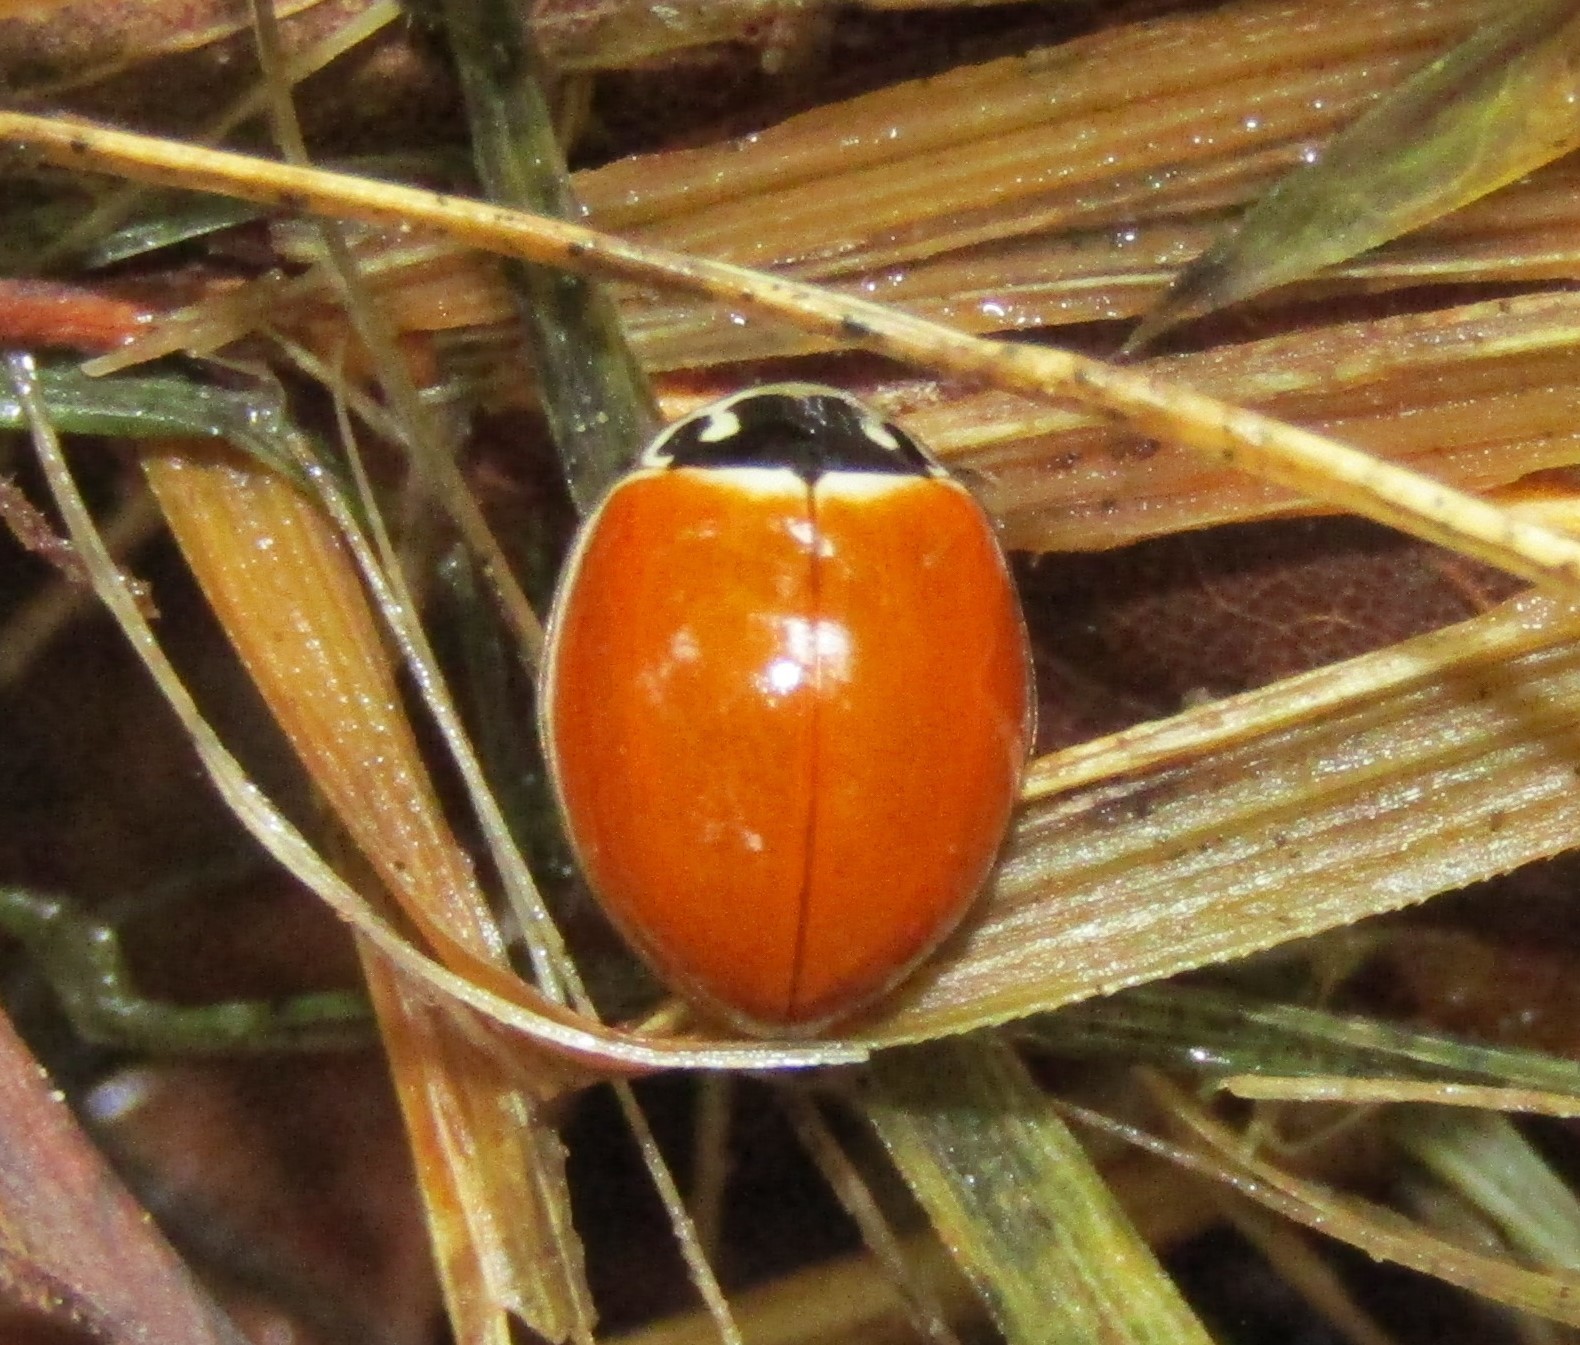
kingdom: Animalia
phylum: Arthropoda
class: Insecta
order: Coleoptera
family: Coccinellidae
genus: Cycloneda
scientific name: Cycloneda munda
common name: Polished lady beetle
